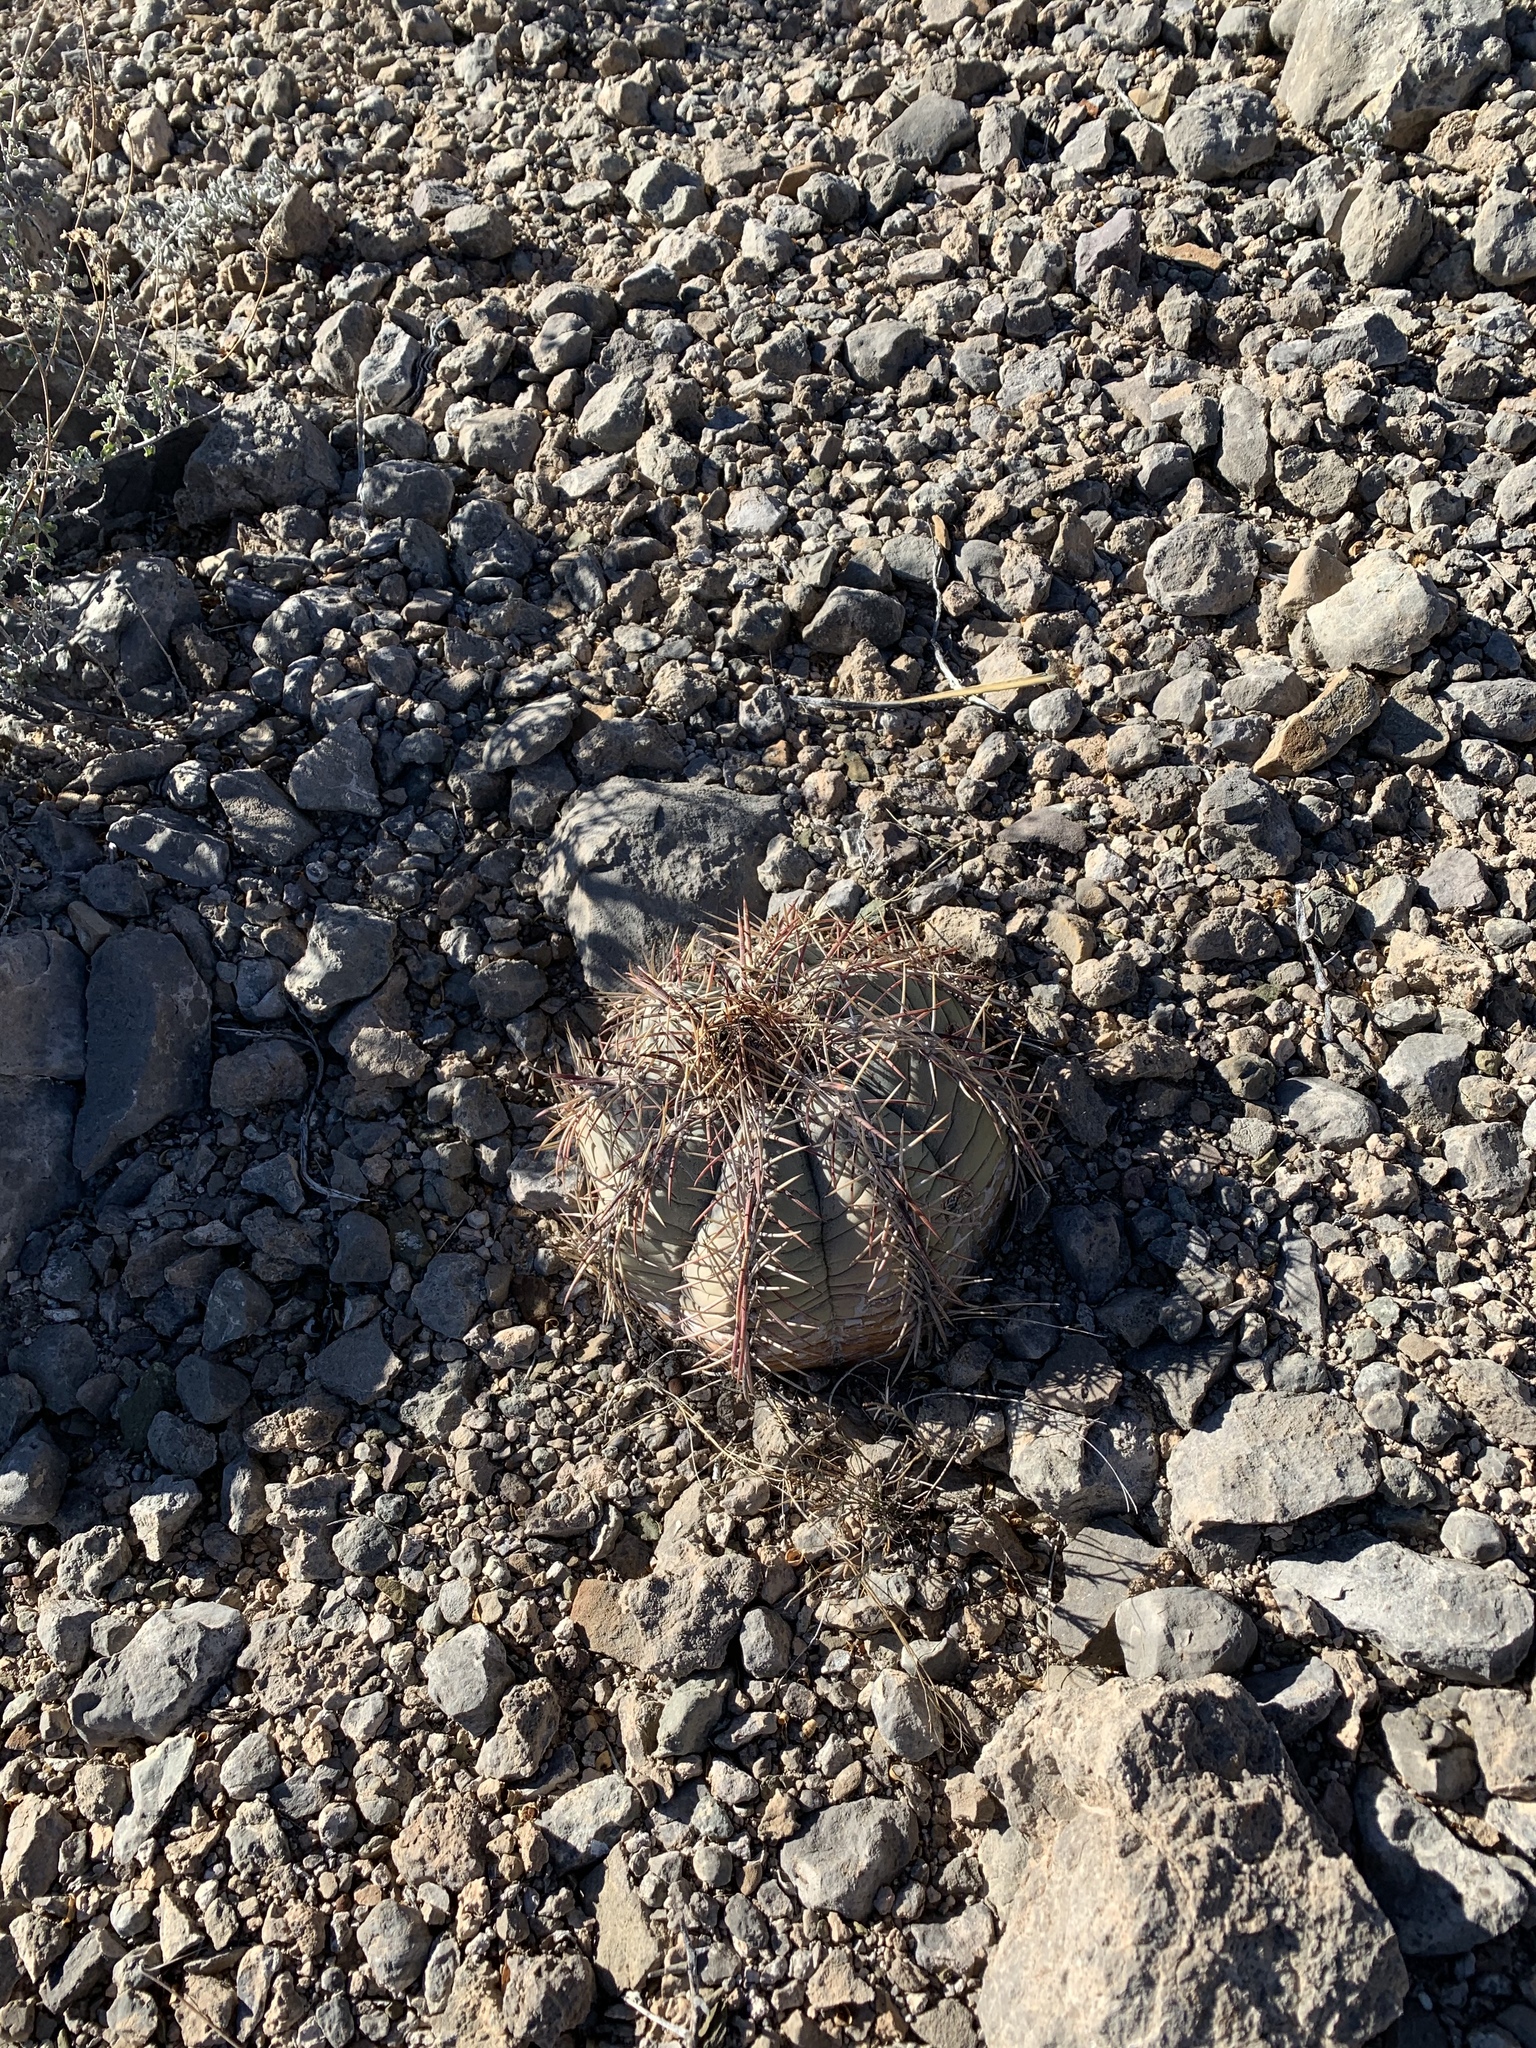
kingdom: Plantae
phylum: Tracheophyta
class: Magnoliopsida
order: Caryophyllales
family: Cactaceae
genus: Echinocactus
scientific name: Echinocactus horizonthalonius
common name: Devilshead
